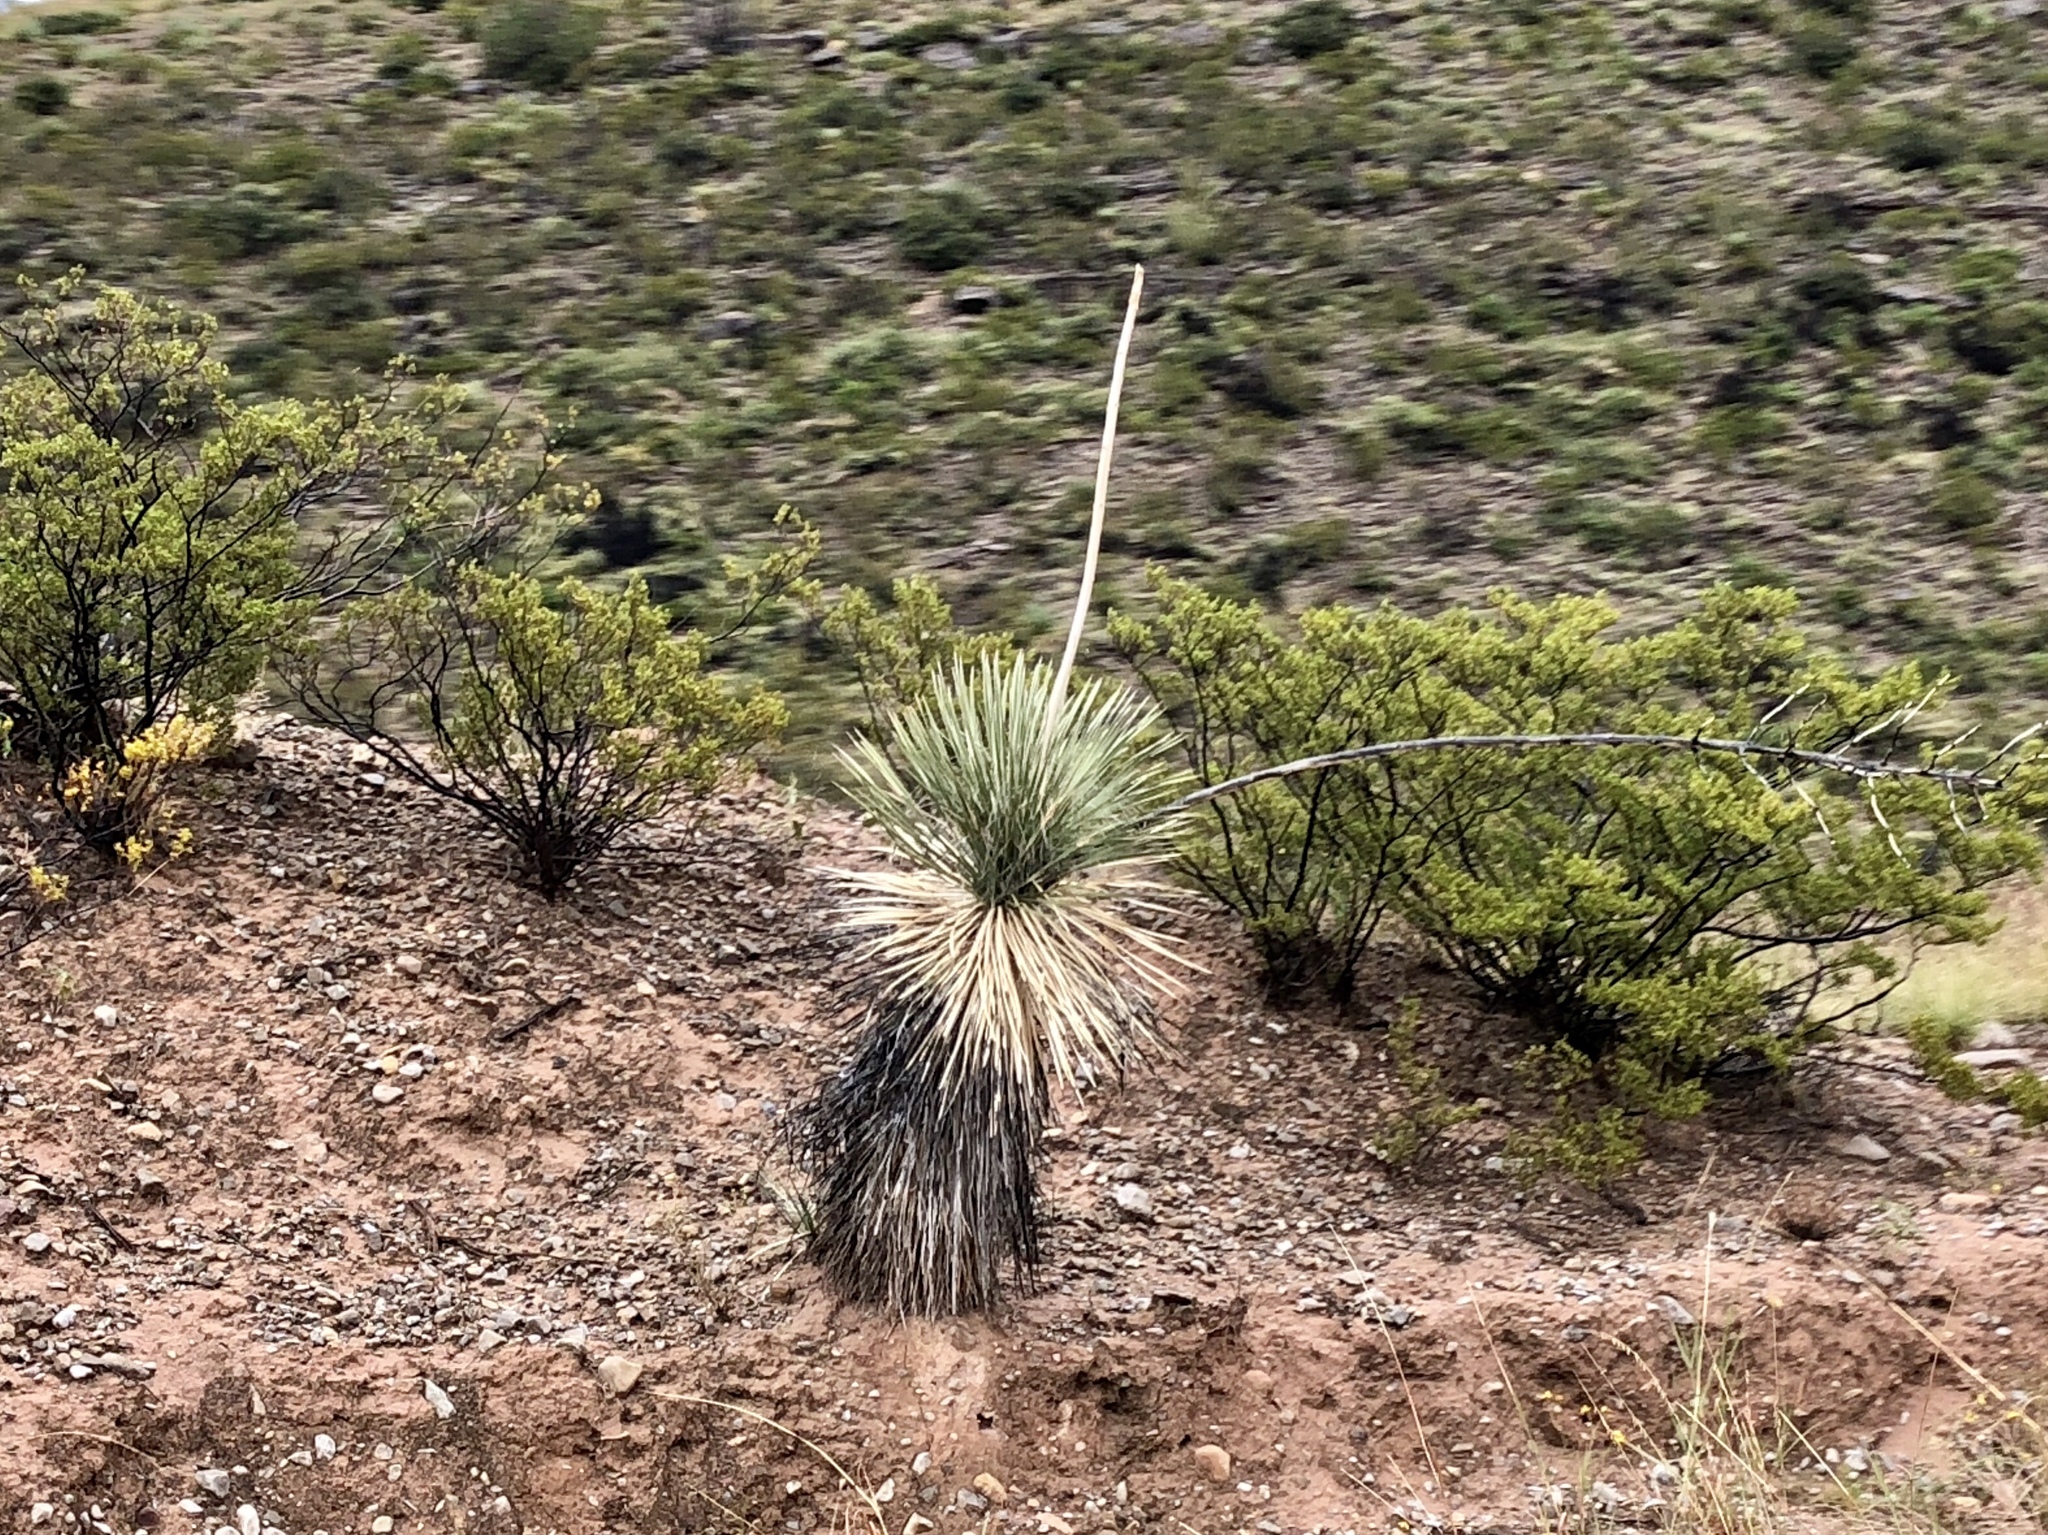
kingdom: Plantae
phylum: Tracheophyta
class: Liliopsida
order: Asparagales
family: Asparagaceae
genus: Yucca
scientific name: Yucca elata
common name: Palmella
